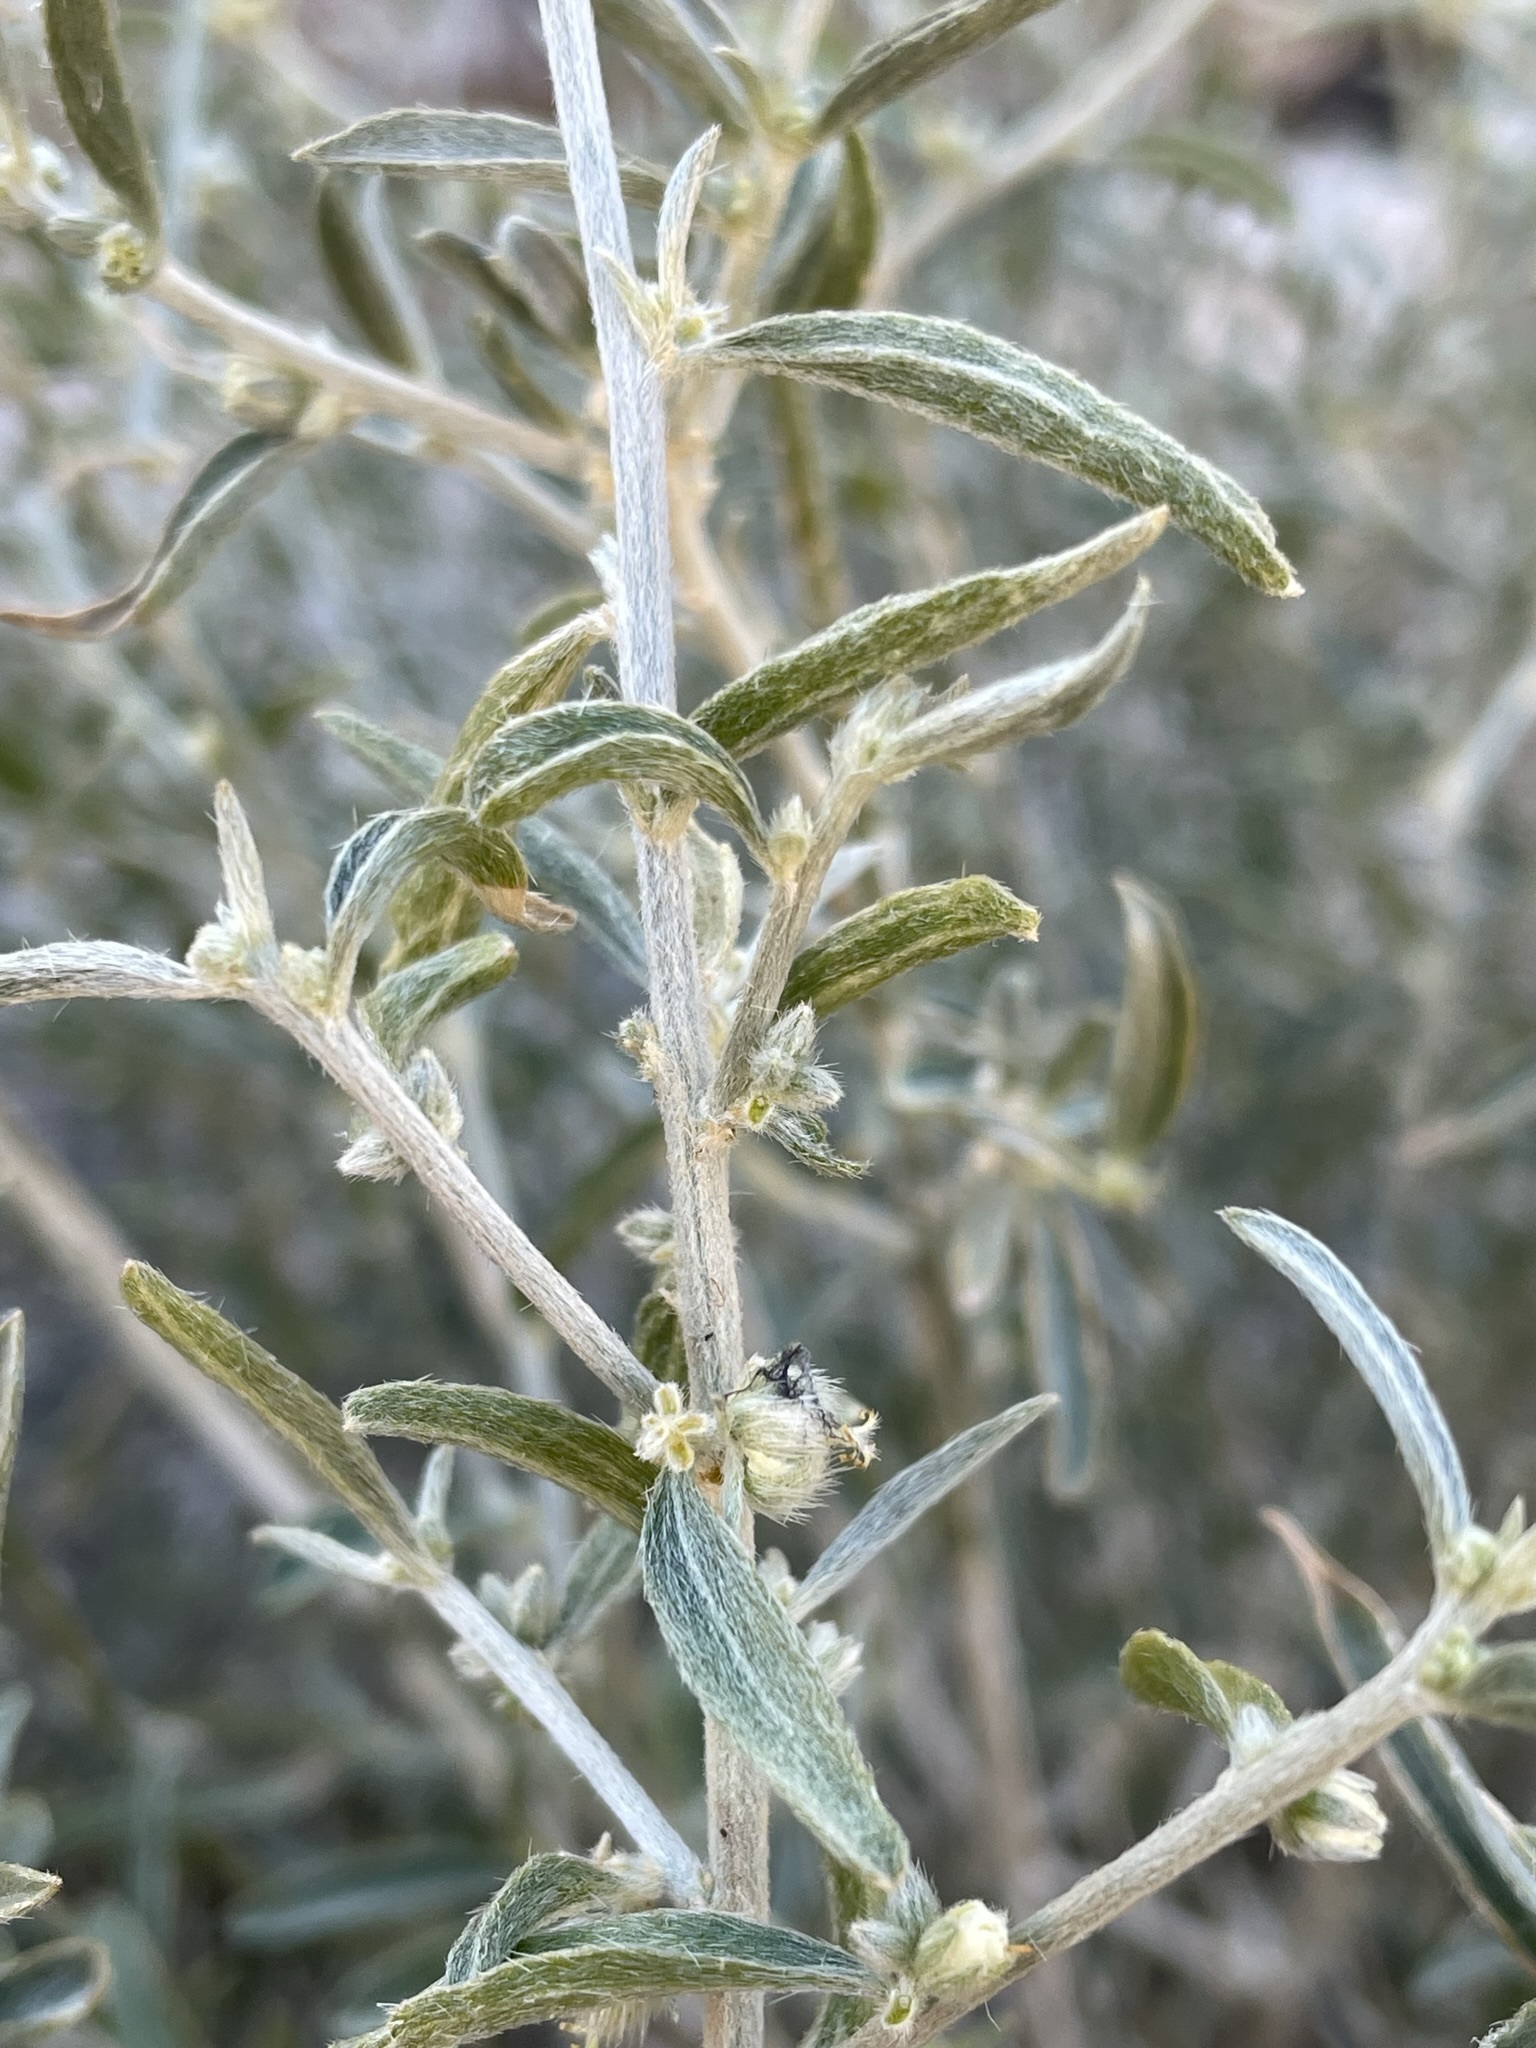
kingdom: Plantae
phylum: Tracheophyta
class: Magnoliopsida
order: Malpighiales
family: Euphorbiaceae
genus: Ditaxis
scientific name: Ditaxis lanceolata
